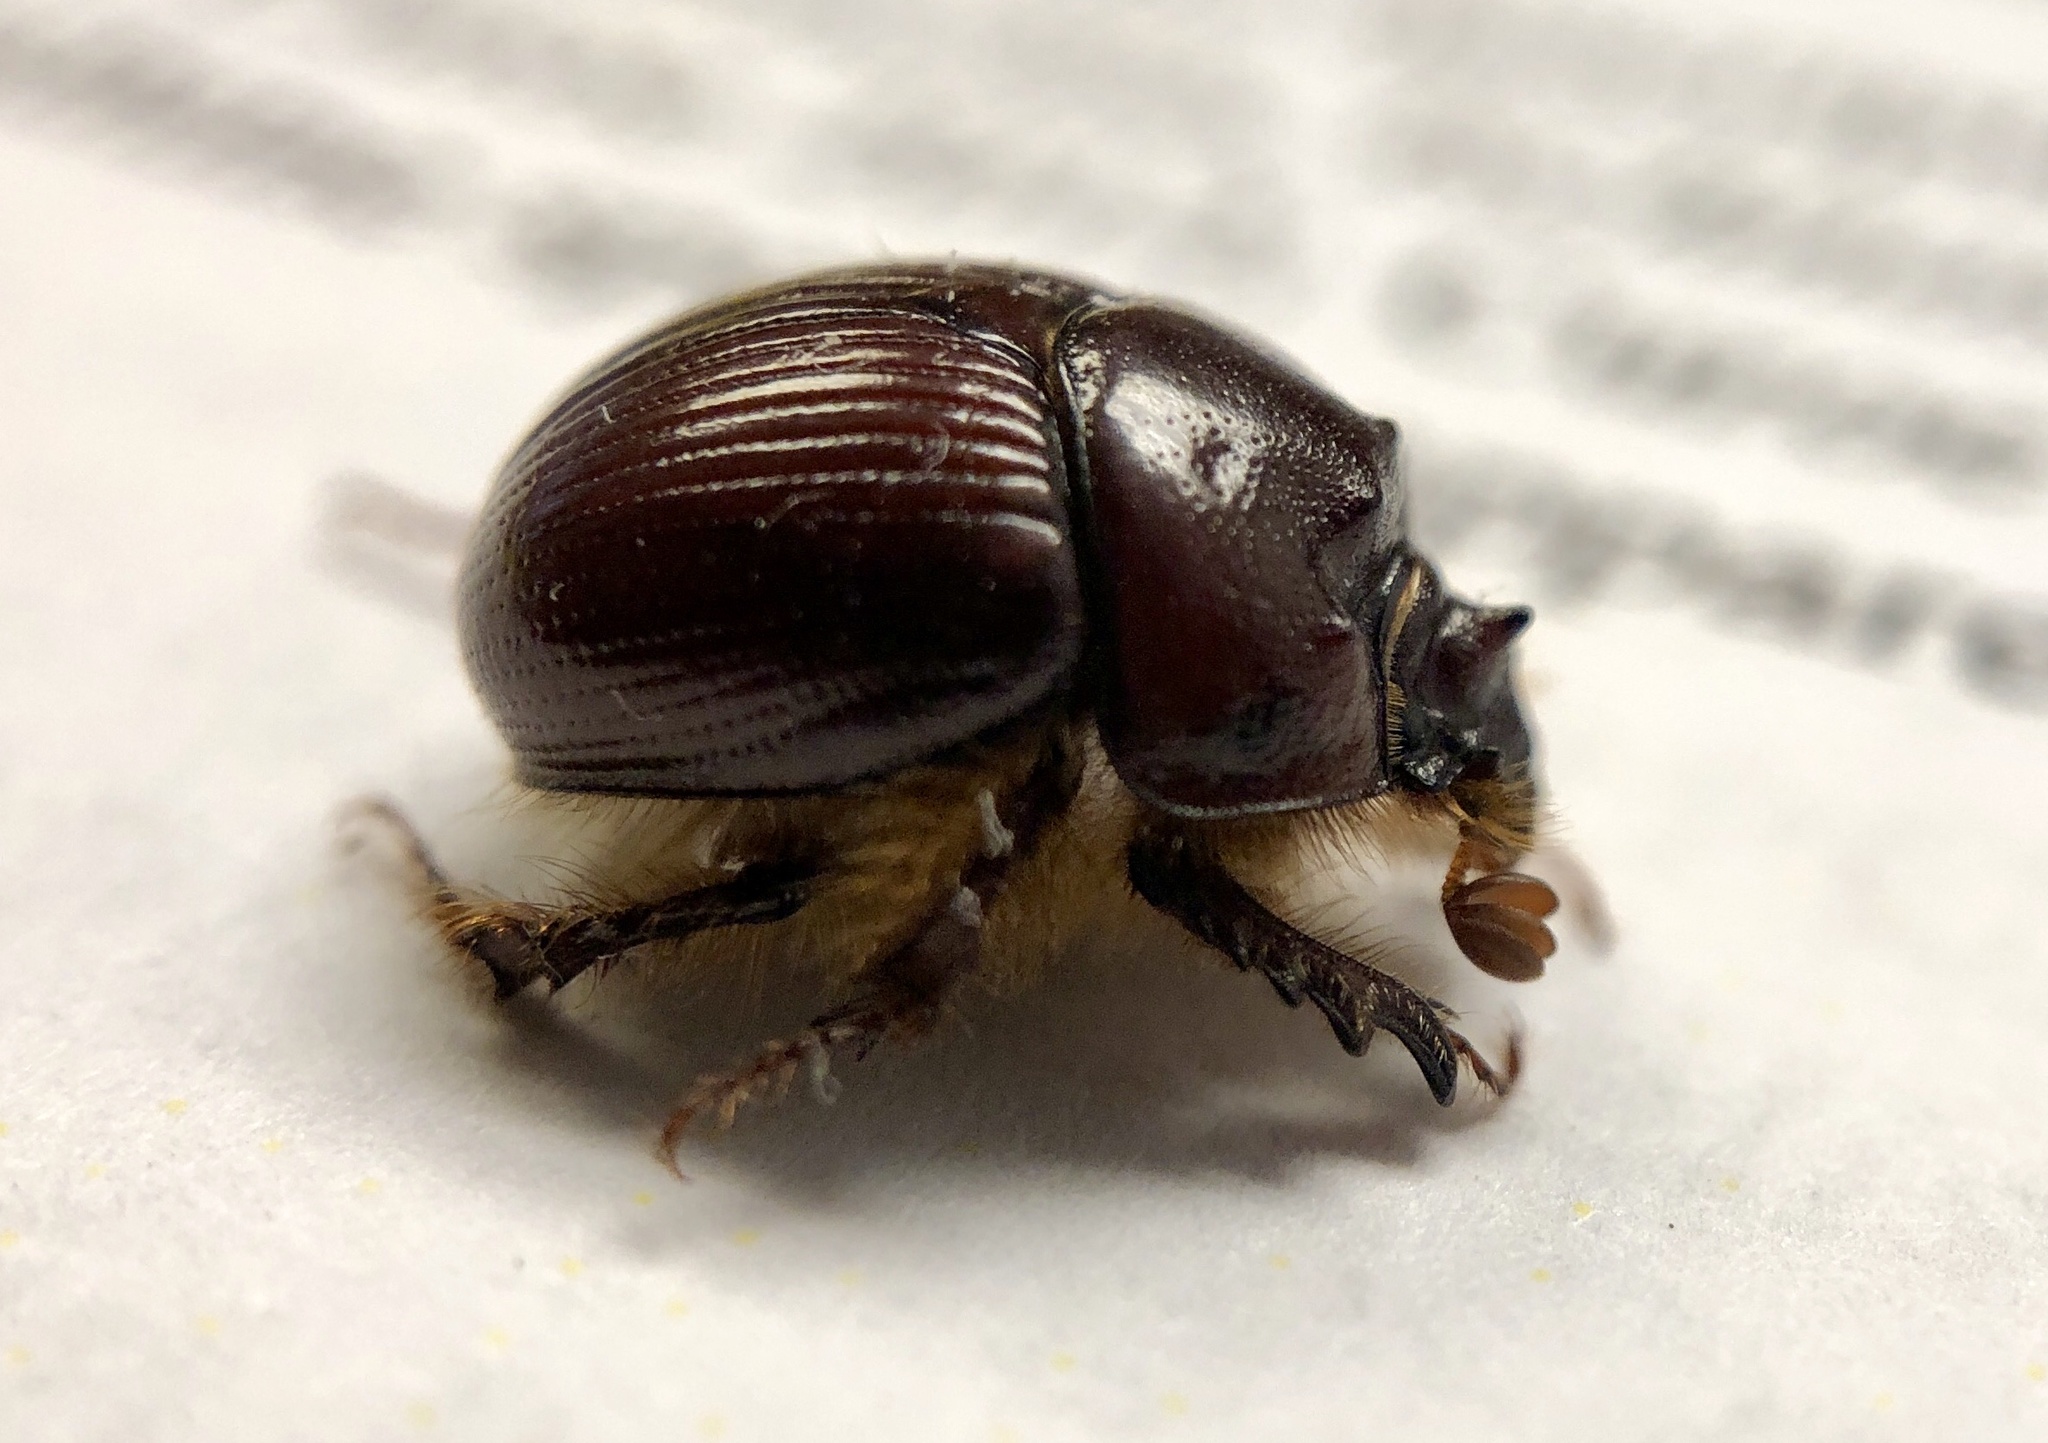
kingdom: Animalia
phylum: Arthropoda
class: Insecta
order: Coleoptera
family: Geotrupidae
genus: Bolbelasmus
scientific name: Bolbelasmus hornii
